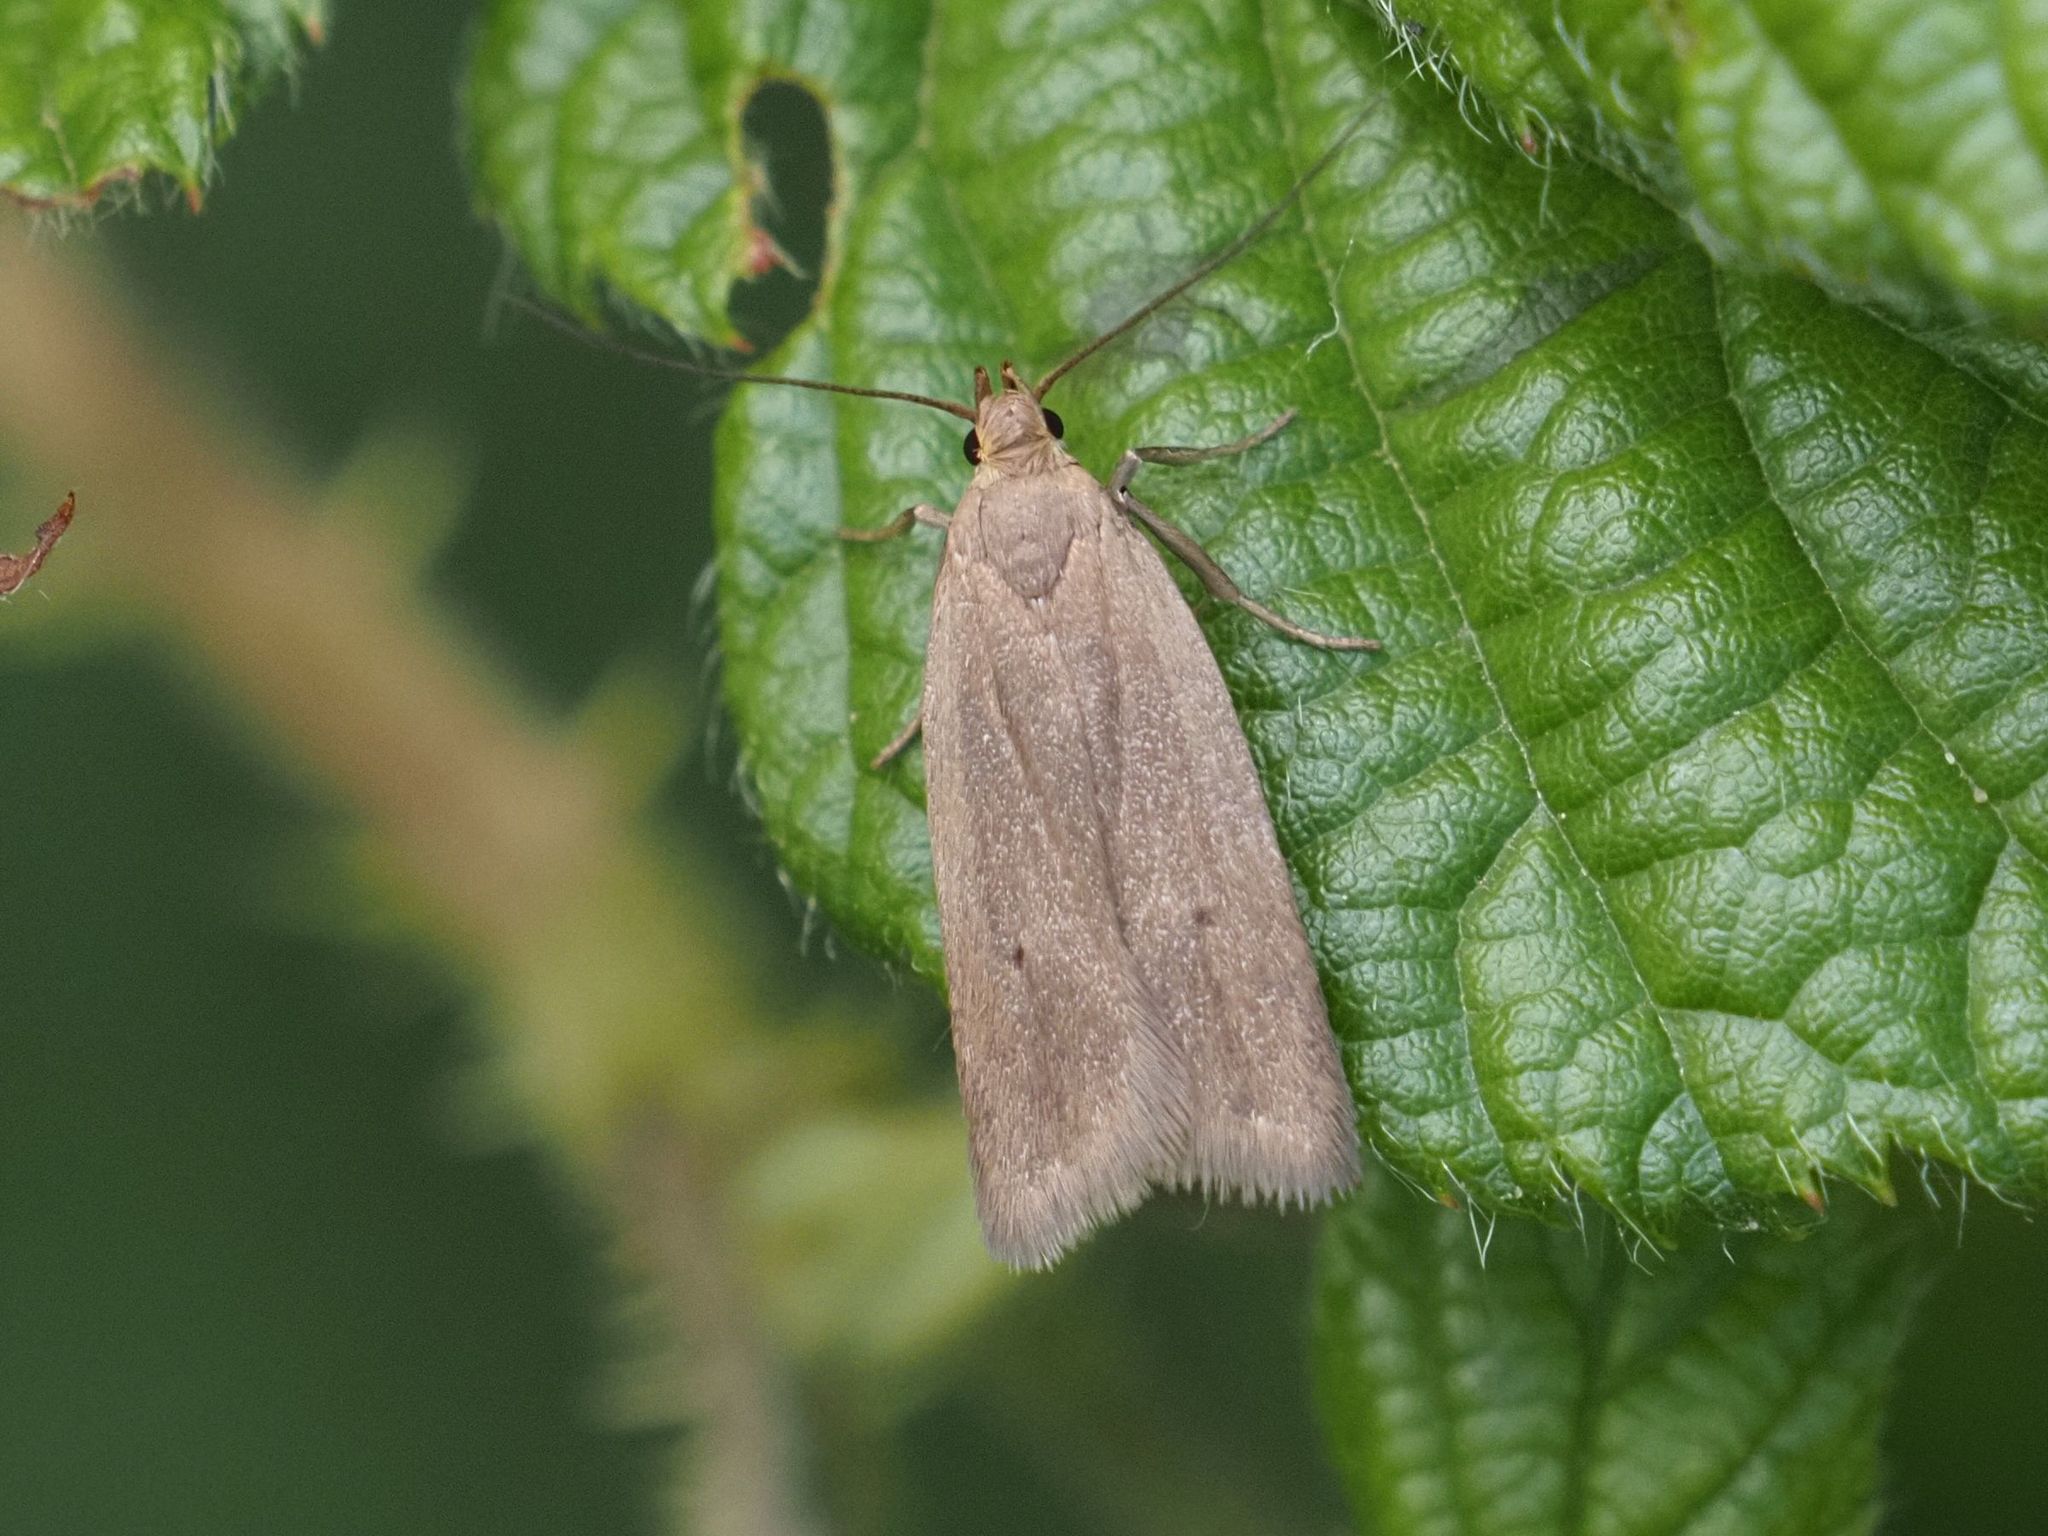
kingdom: Animalia
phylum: Arthropoda
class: Insecta
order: Lepidoptera
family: Gelechiidae
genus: Acompsia
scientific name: Acompsia tripunctella
